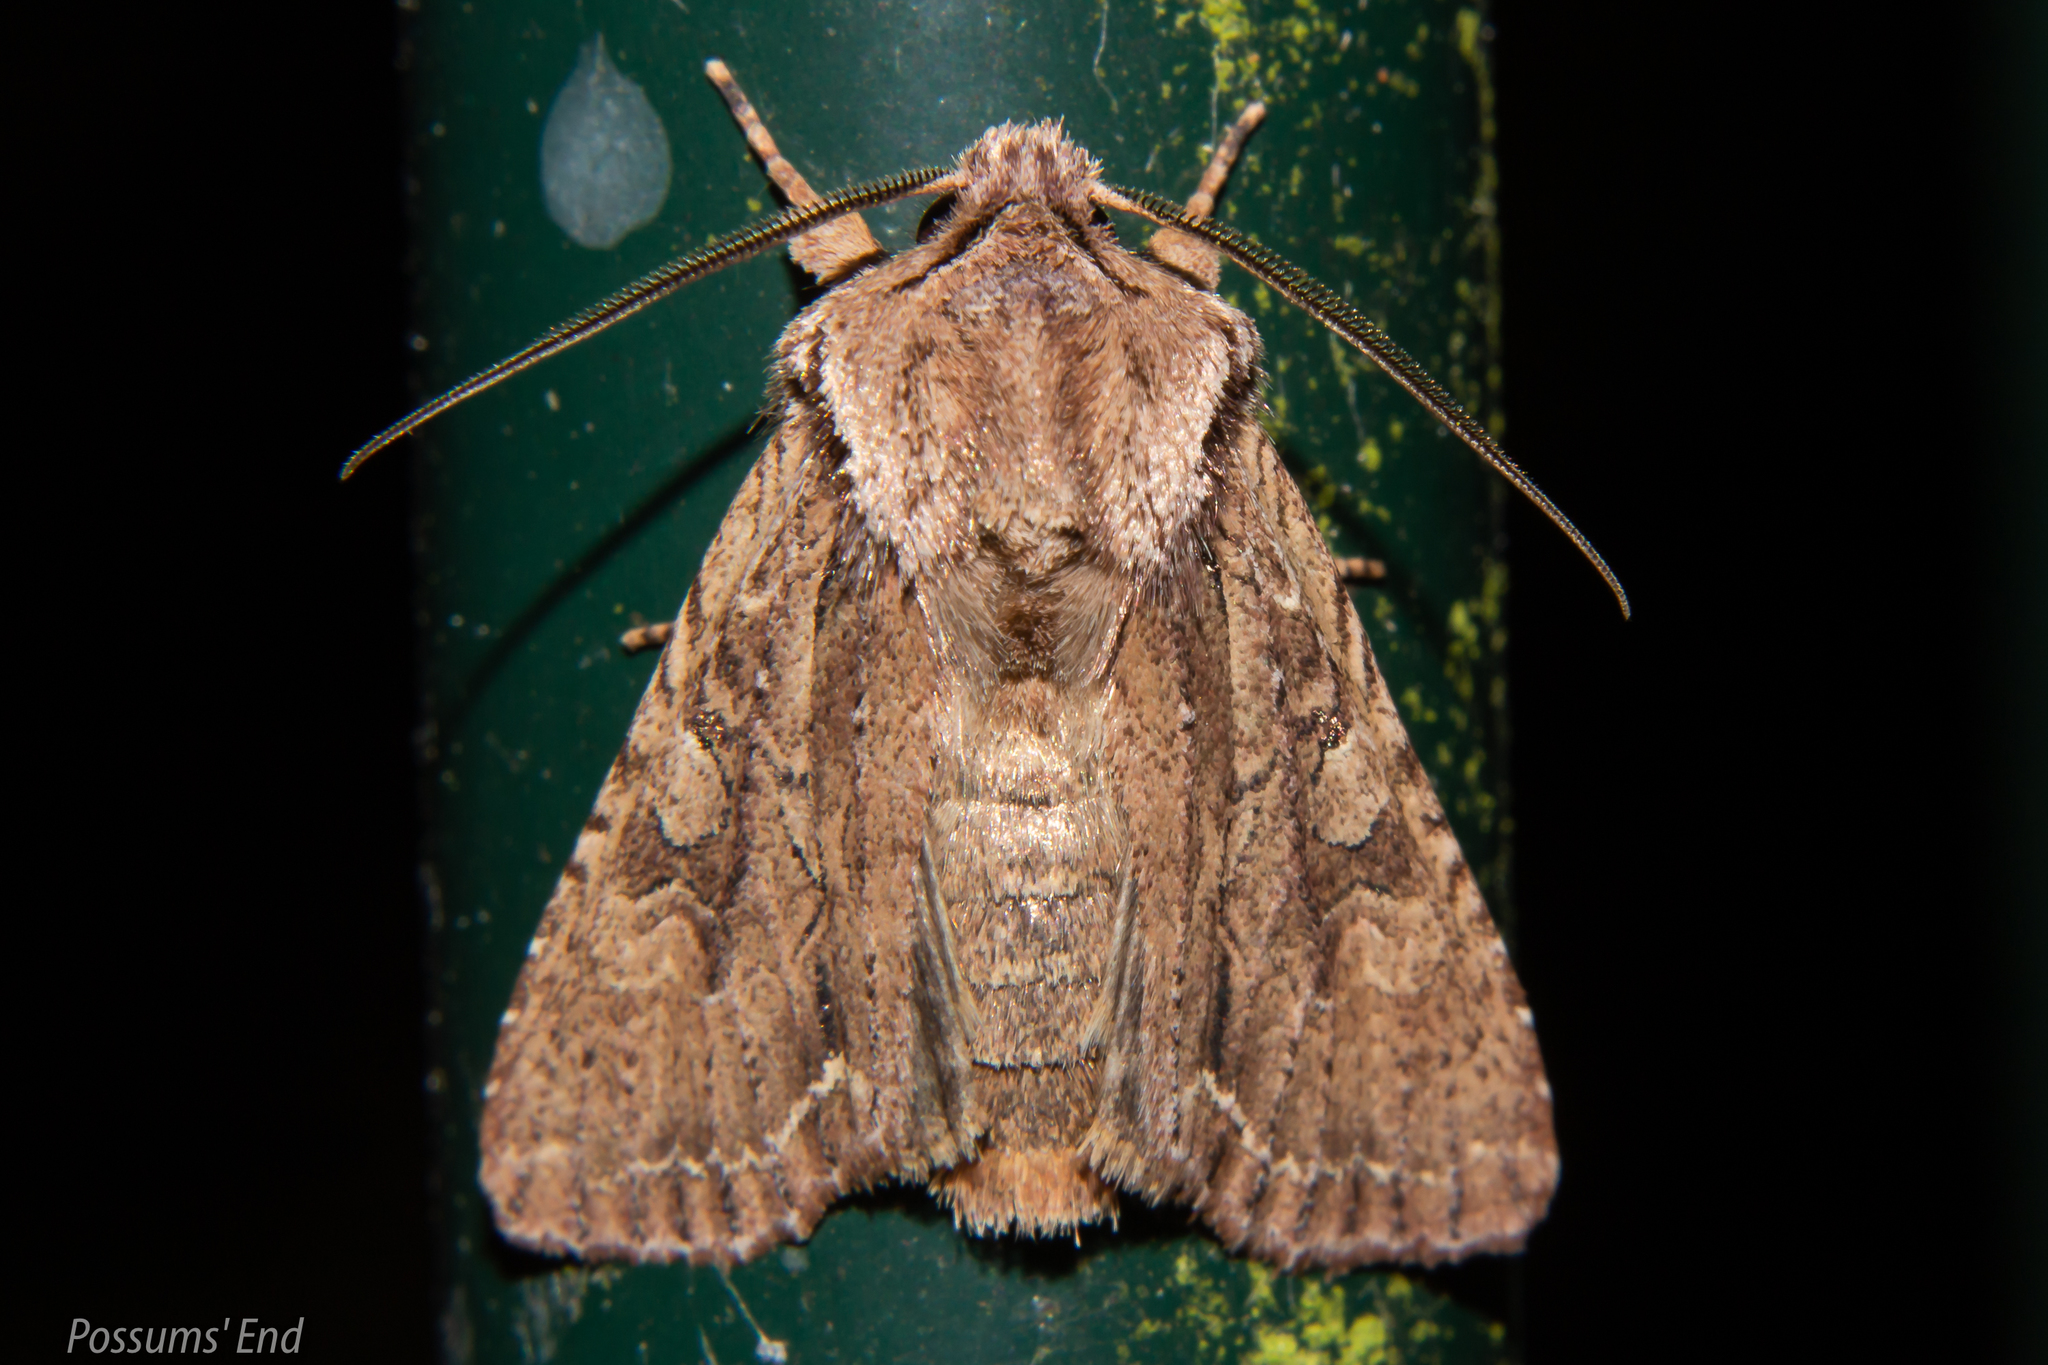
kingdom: Animalia
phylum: Arthropoda
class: Insecta
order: Lepidoptera
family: Noctuidae
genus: Ichneutica
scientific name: Ichneutica
